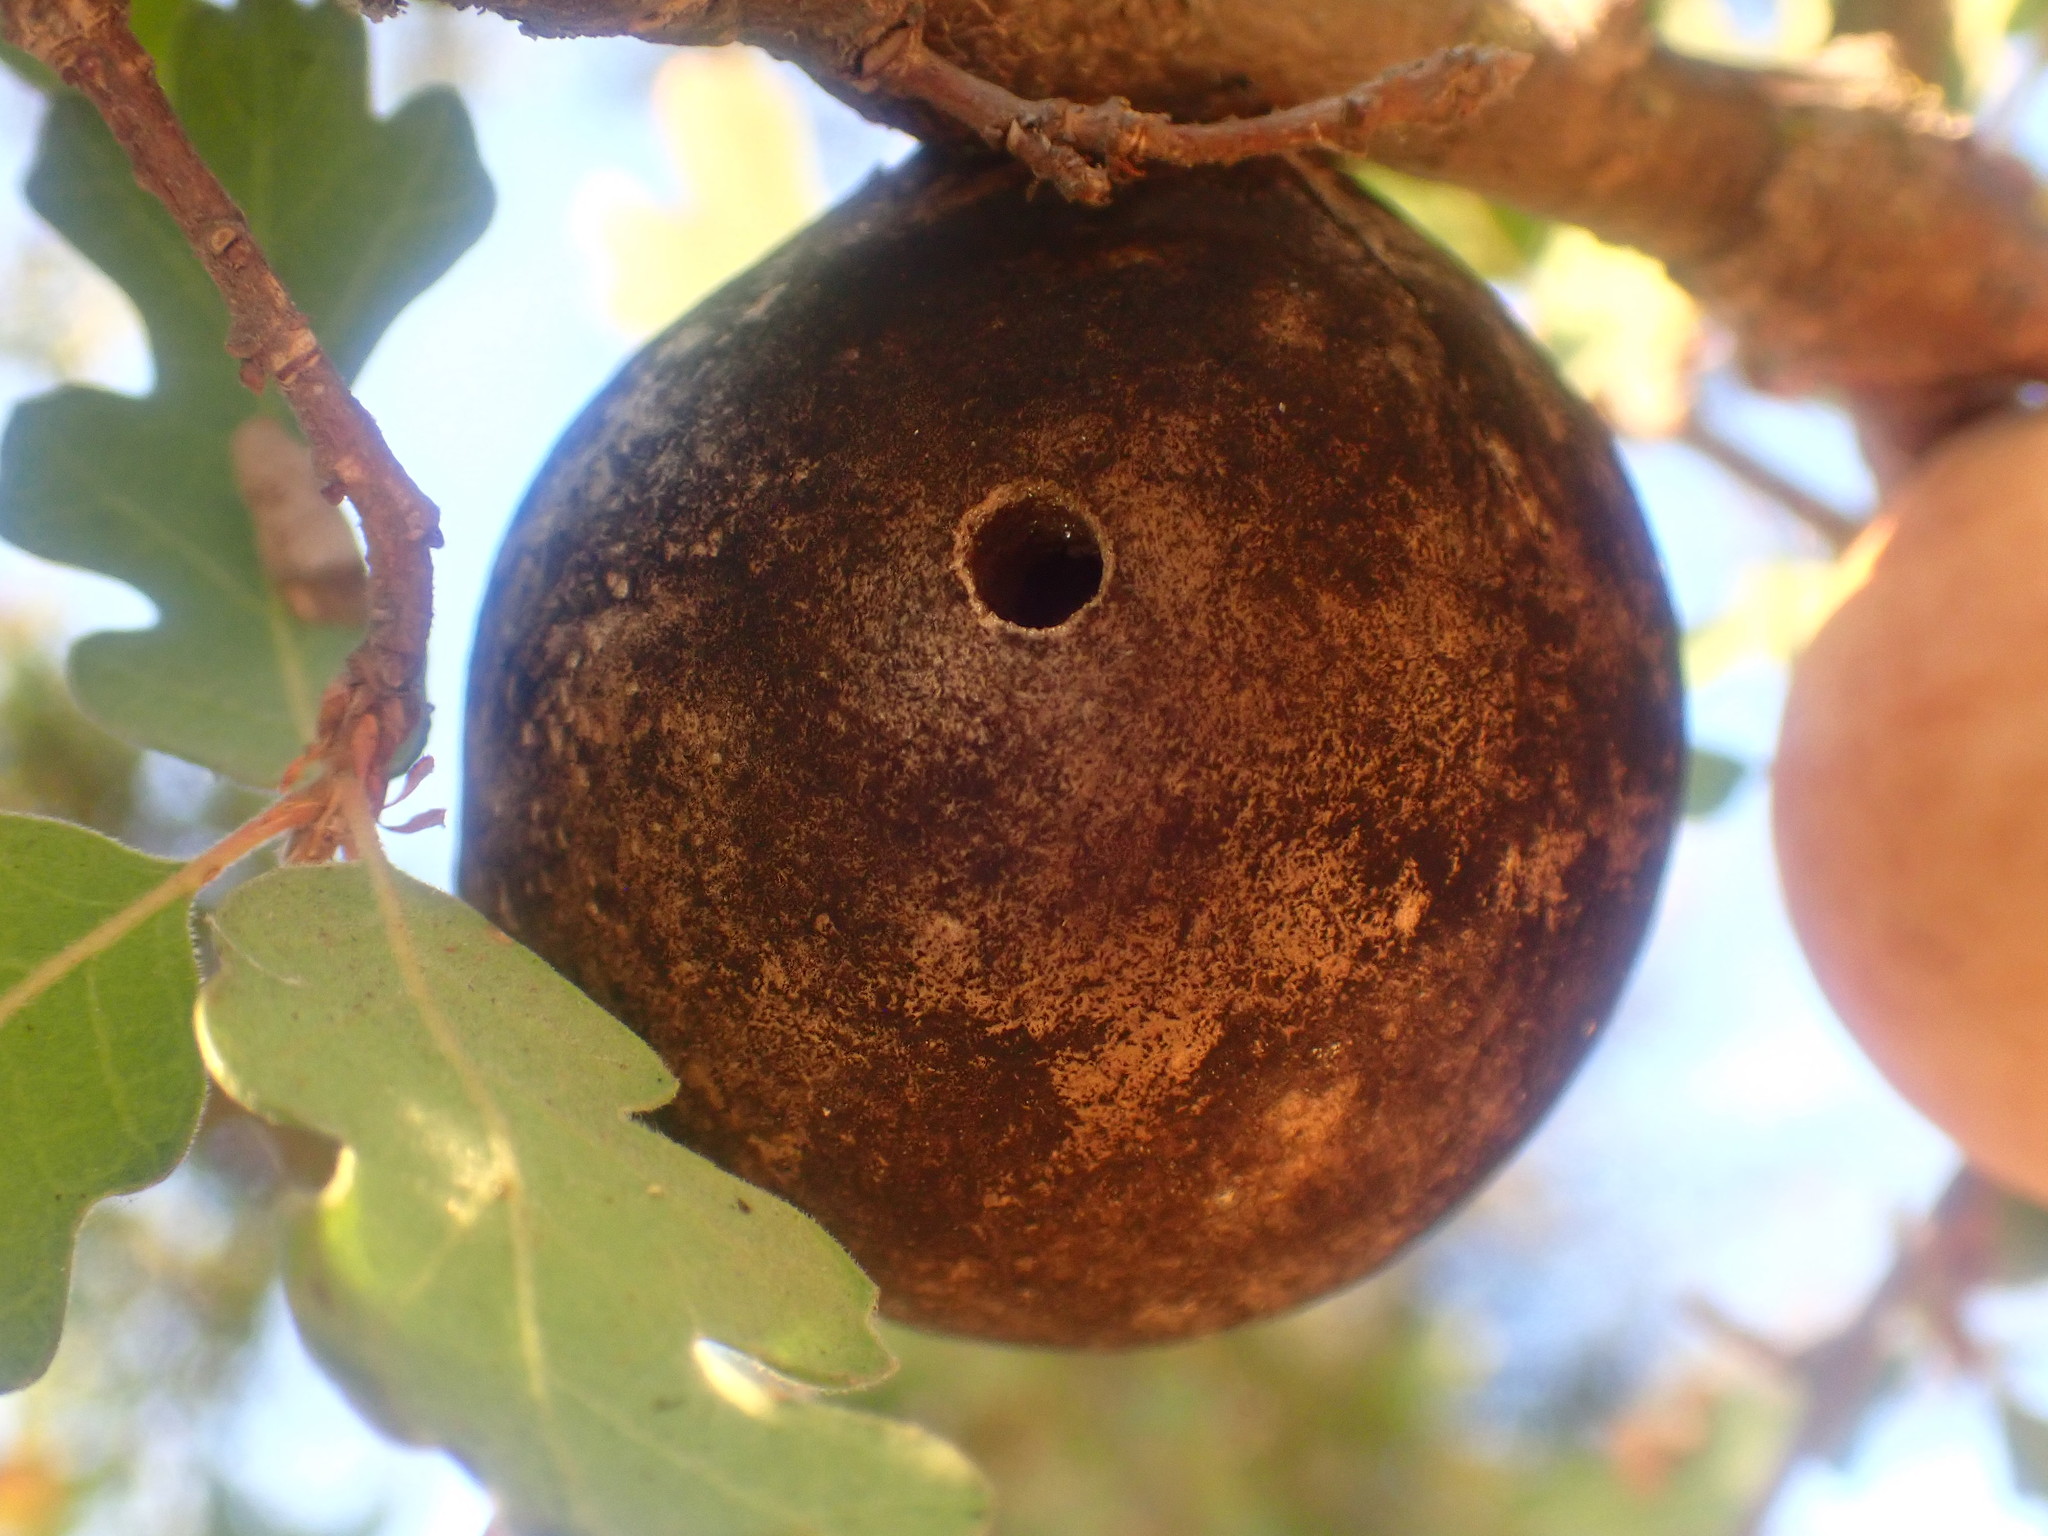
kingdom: Animalia
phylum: Arthropoda
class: Insecta
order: Hymenoptera
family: Cynipidae
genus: Andricus
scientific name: Andricus quercuscalifornicus
